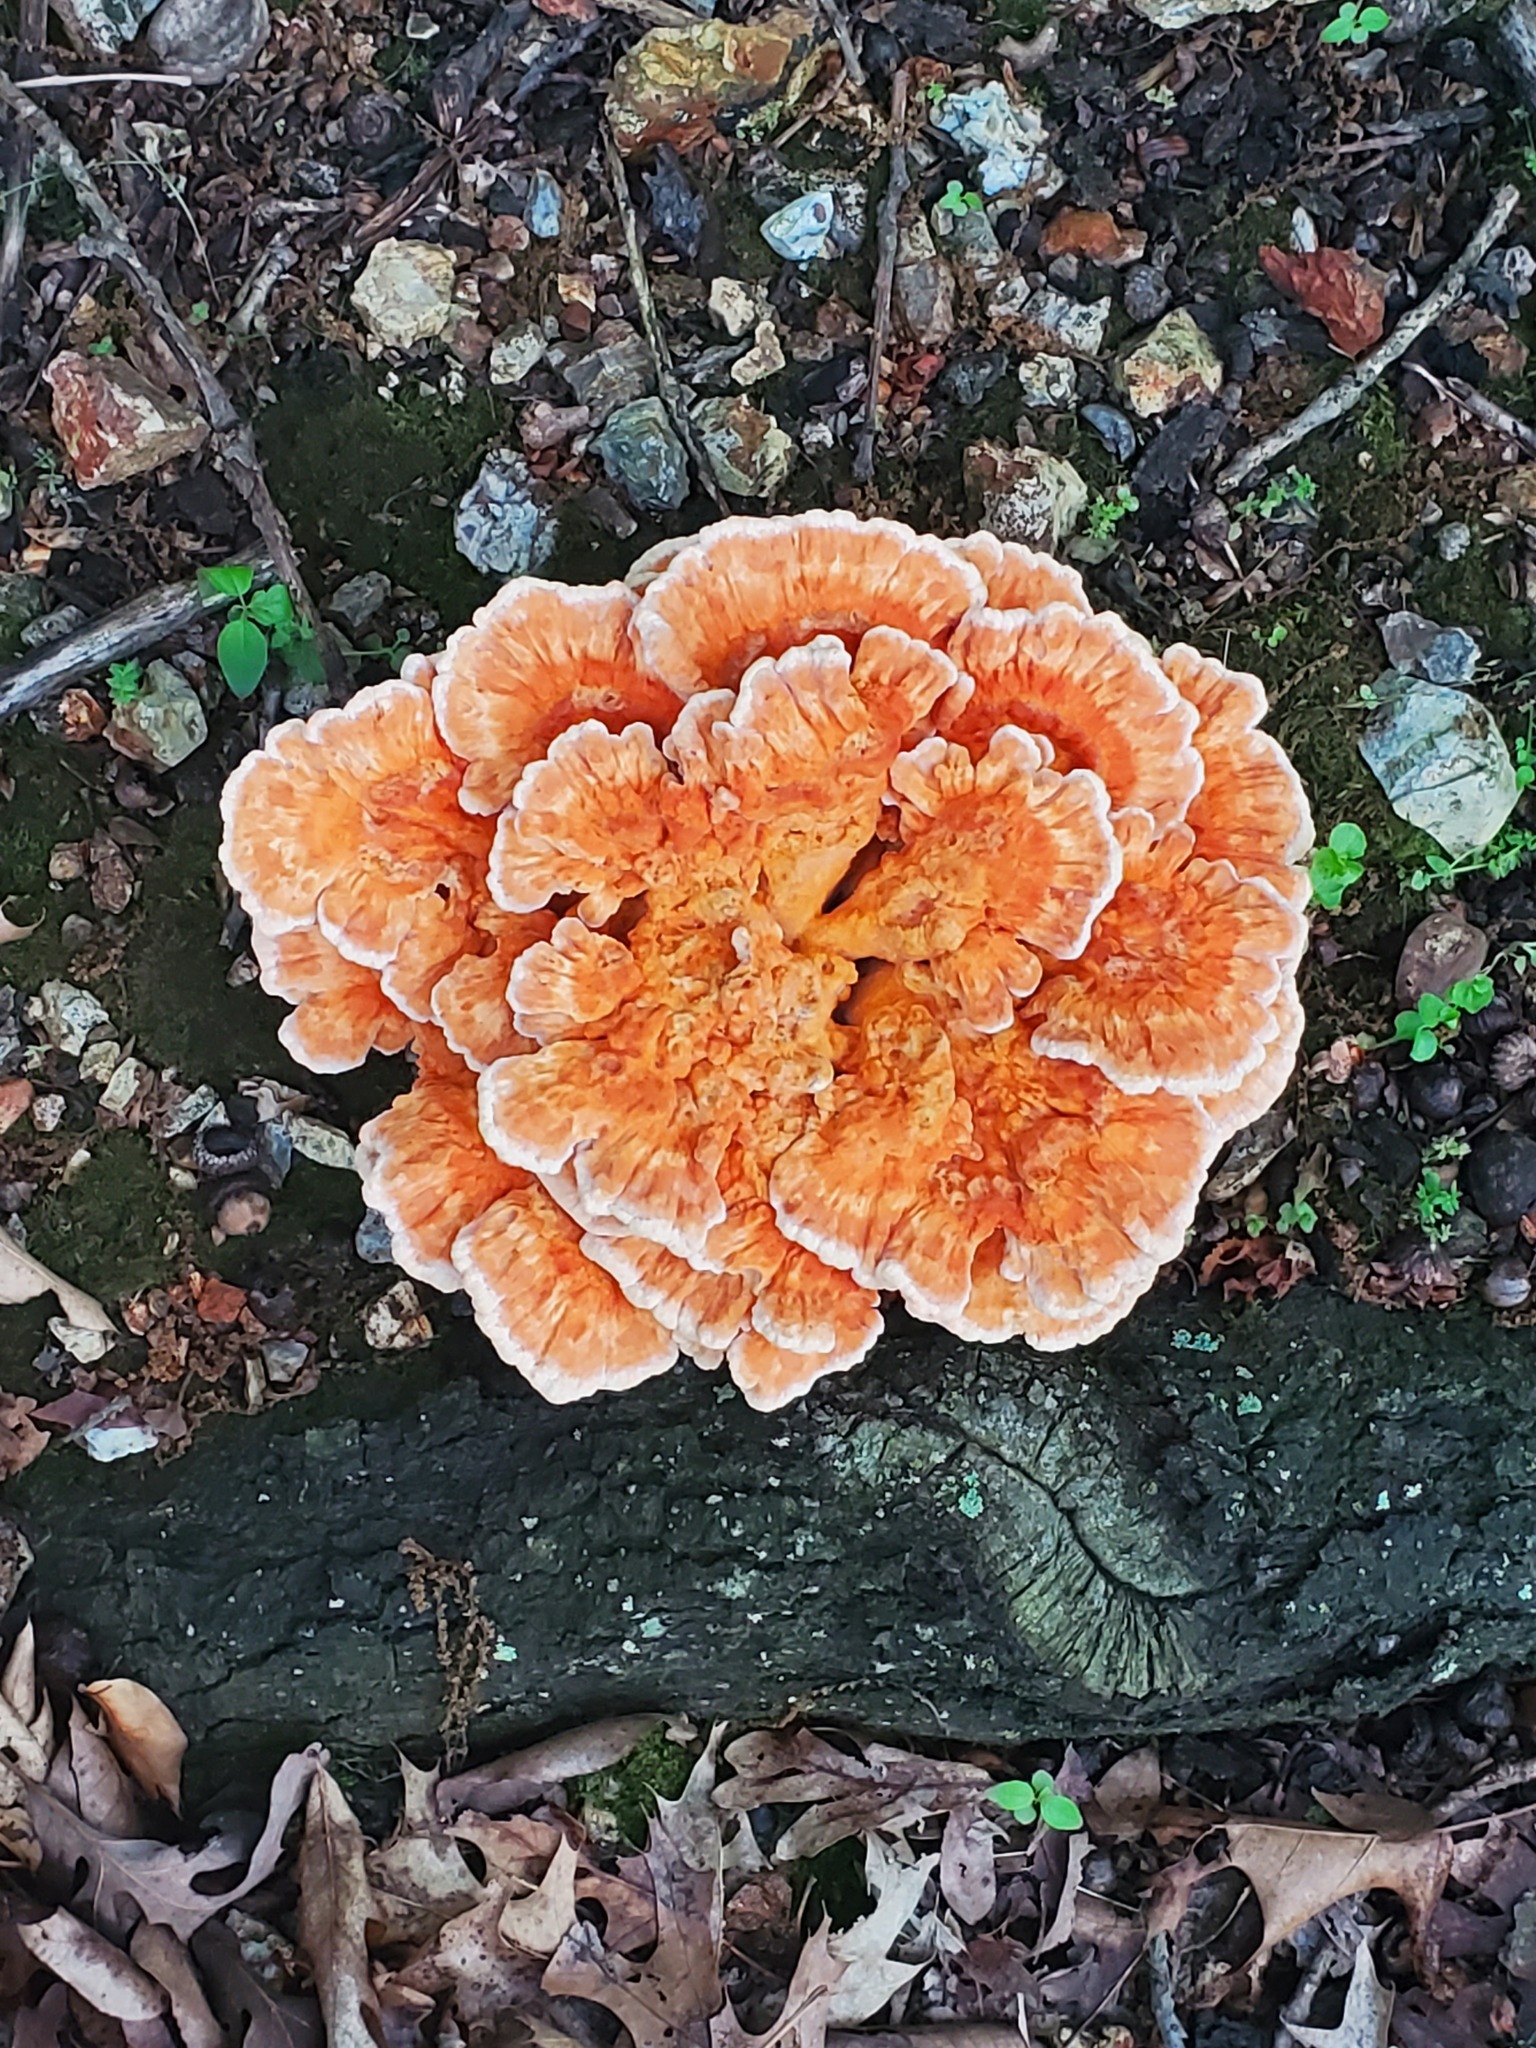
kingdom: Fungi
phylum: Basidiomycota
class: Agaricomycetes
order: Polyporales
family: Laetiporaceae
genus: Laetiporus
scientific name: Laetiporus sulphureus
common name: Chicken of the woods
